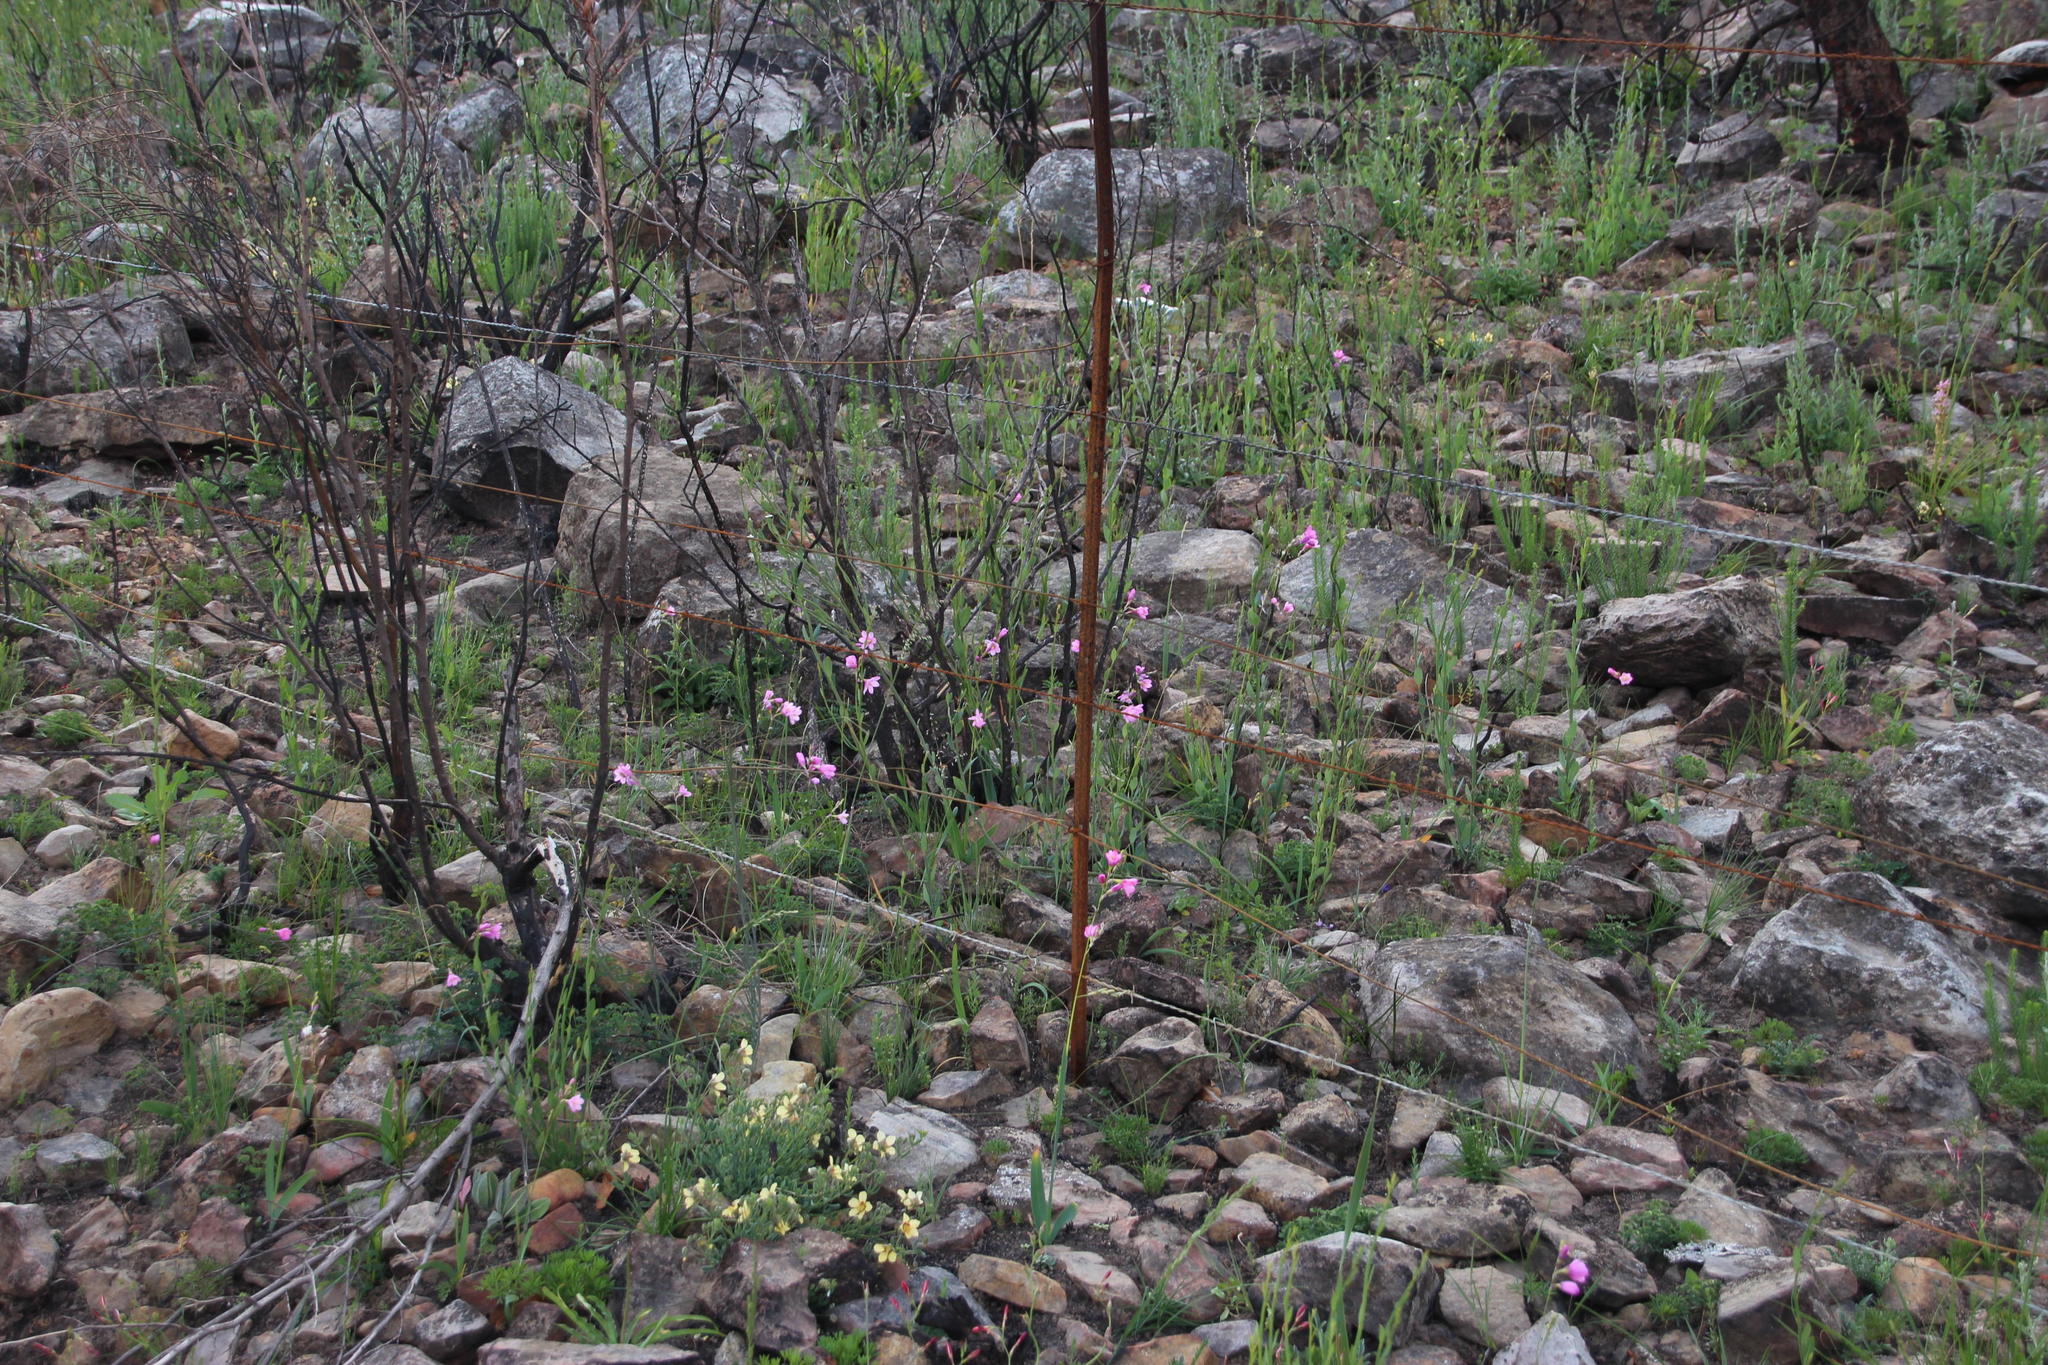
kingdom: Plantae
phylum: Tracheophyta
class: Liliopsida
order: Asparagales
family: Iridaceae
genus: Ixia
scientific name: Ixia latifolia
